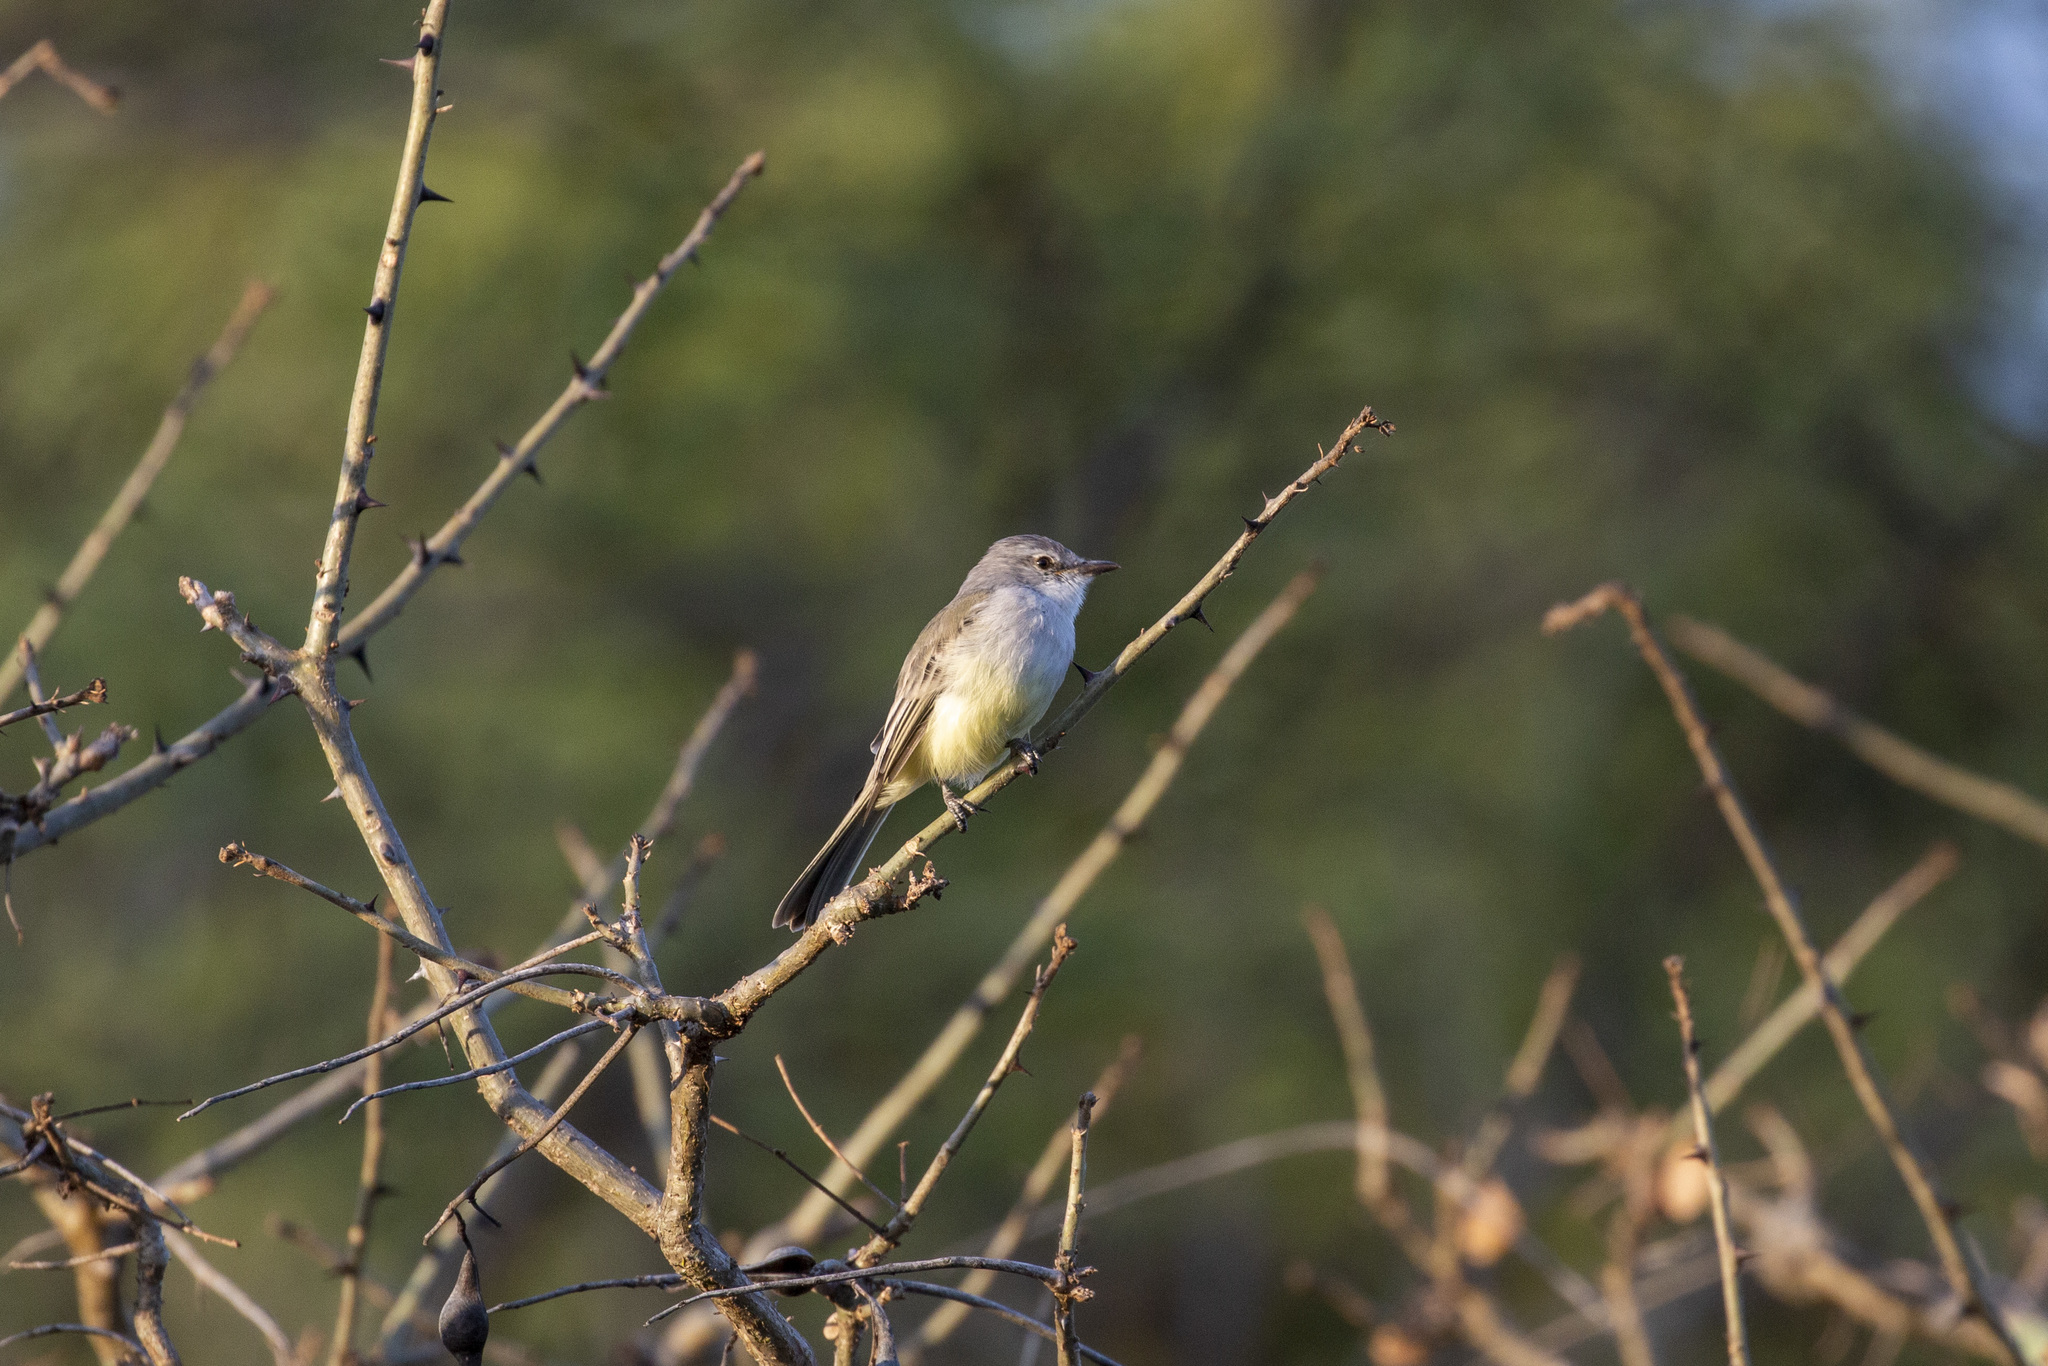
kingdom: Animalia
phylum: Chordata
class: Aves
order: Passeriformes
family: Tyrannidae
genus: Suiriri
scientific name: Suiriri suiriri
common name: Suiriri flycatcher
